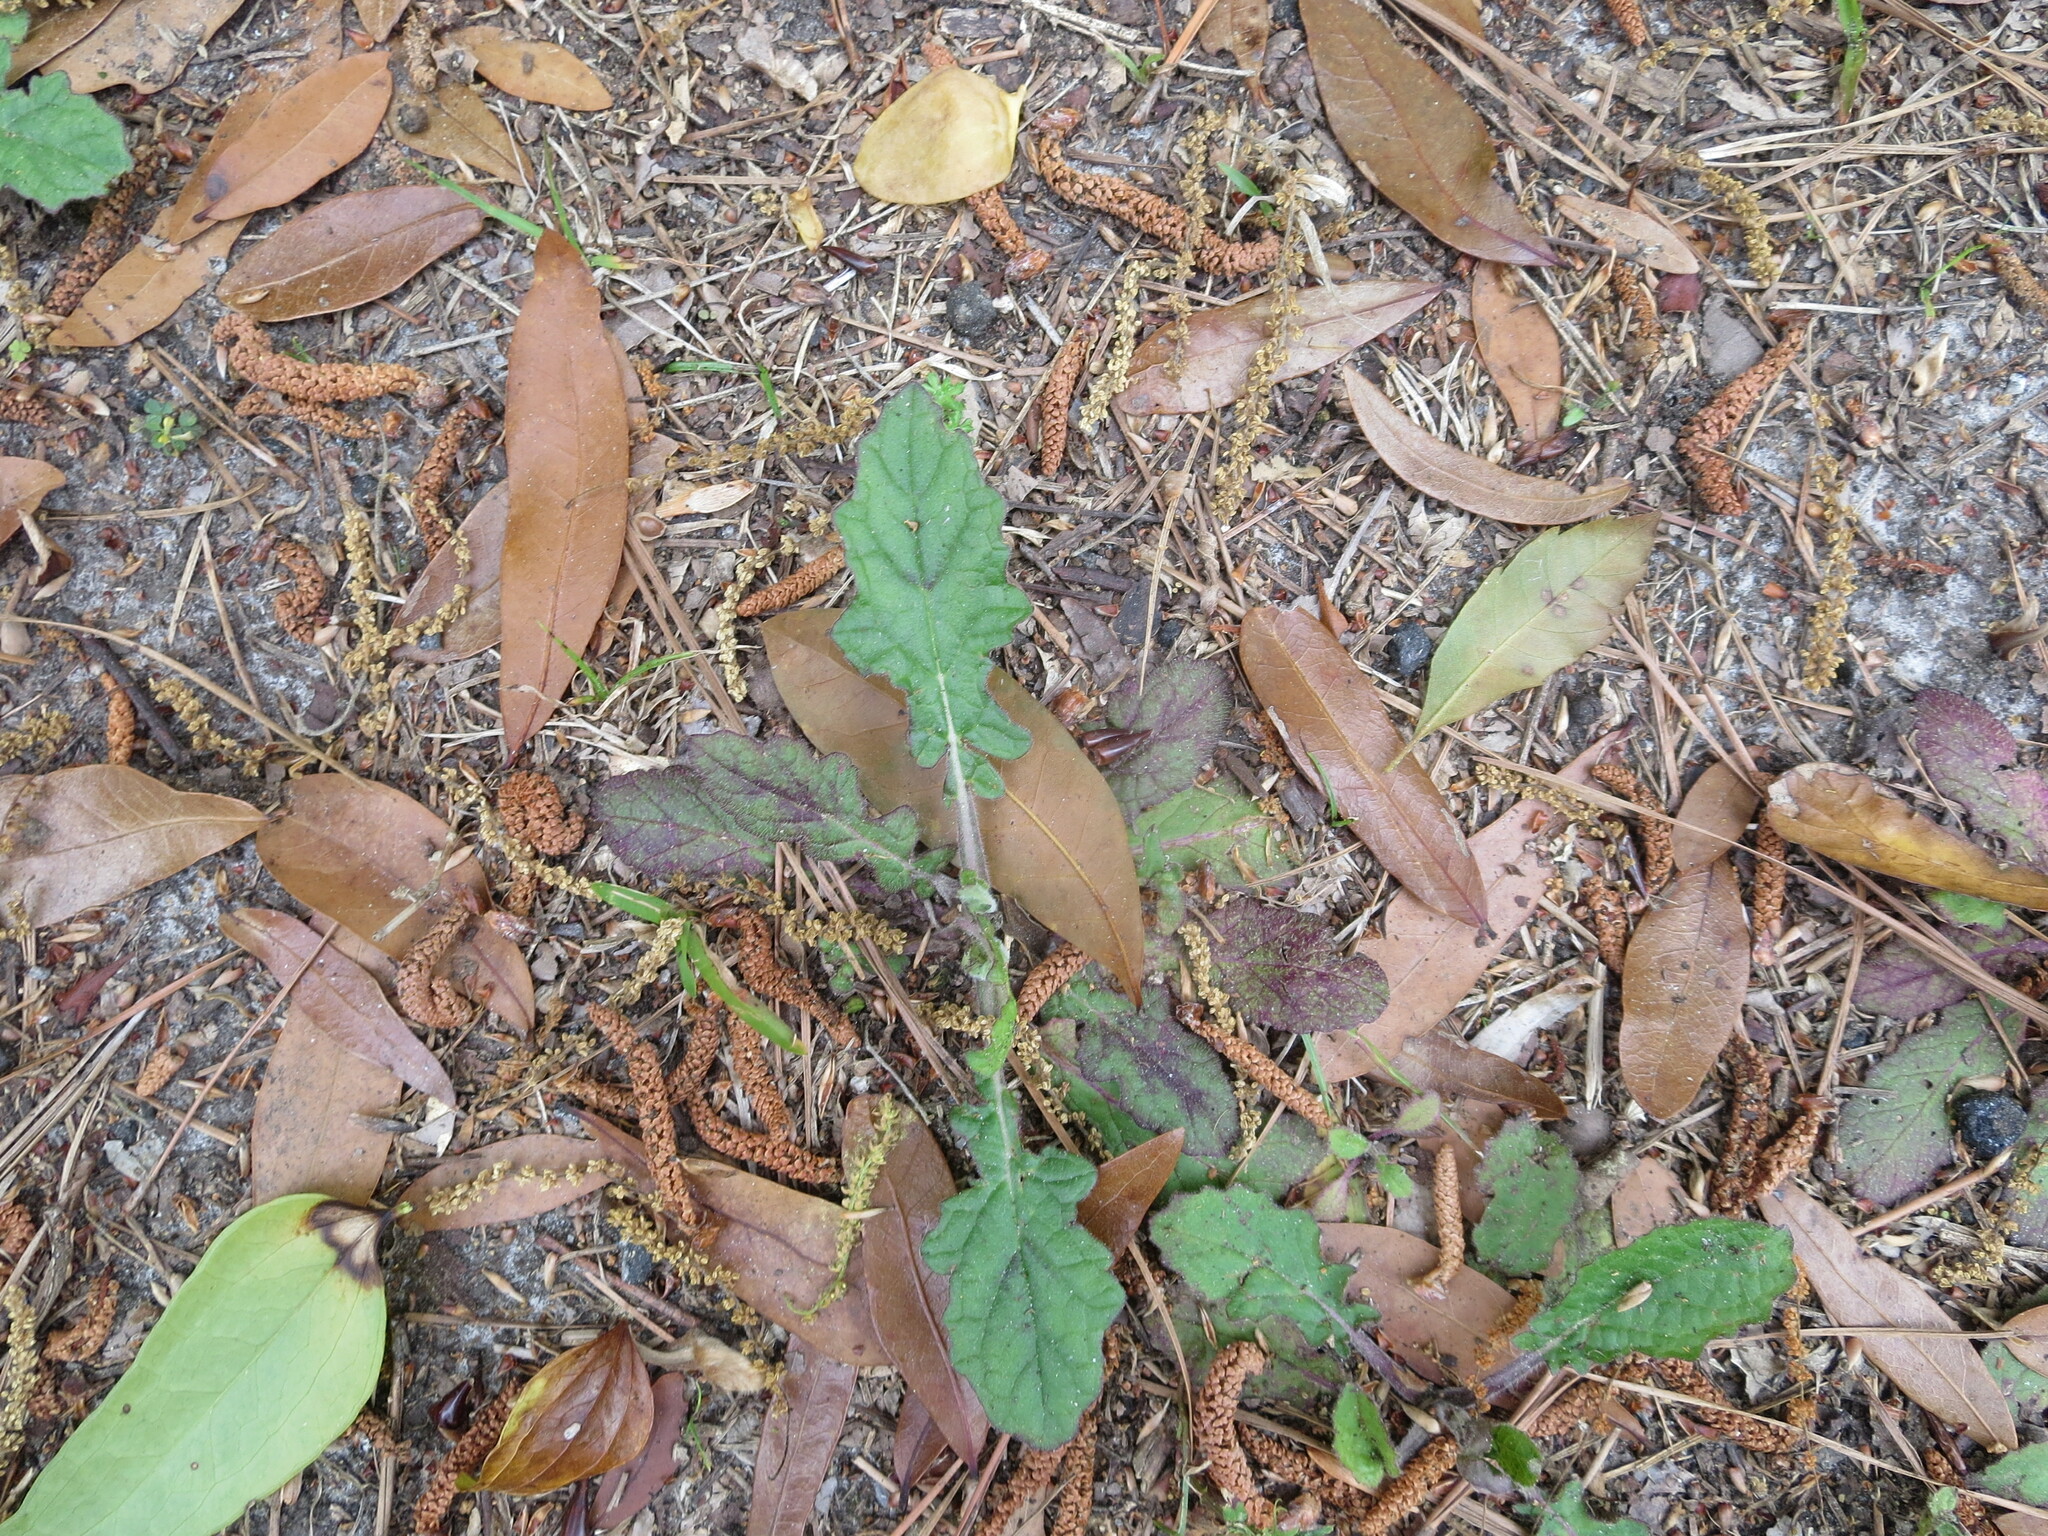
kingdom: Plantae
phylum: Tracheophyta
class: Magnoliopsida
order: Lamiales
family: Lamiaceae
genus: Salvia
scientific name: Salvia lyrata
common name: Cancerweed
